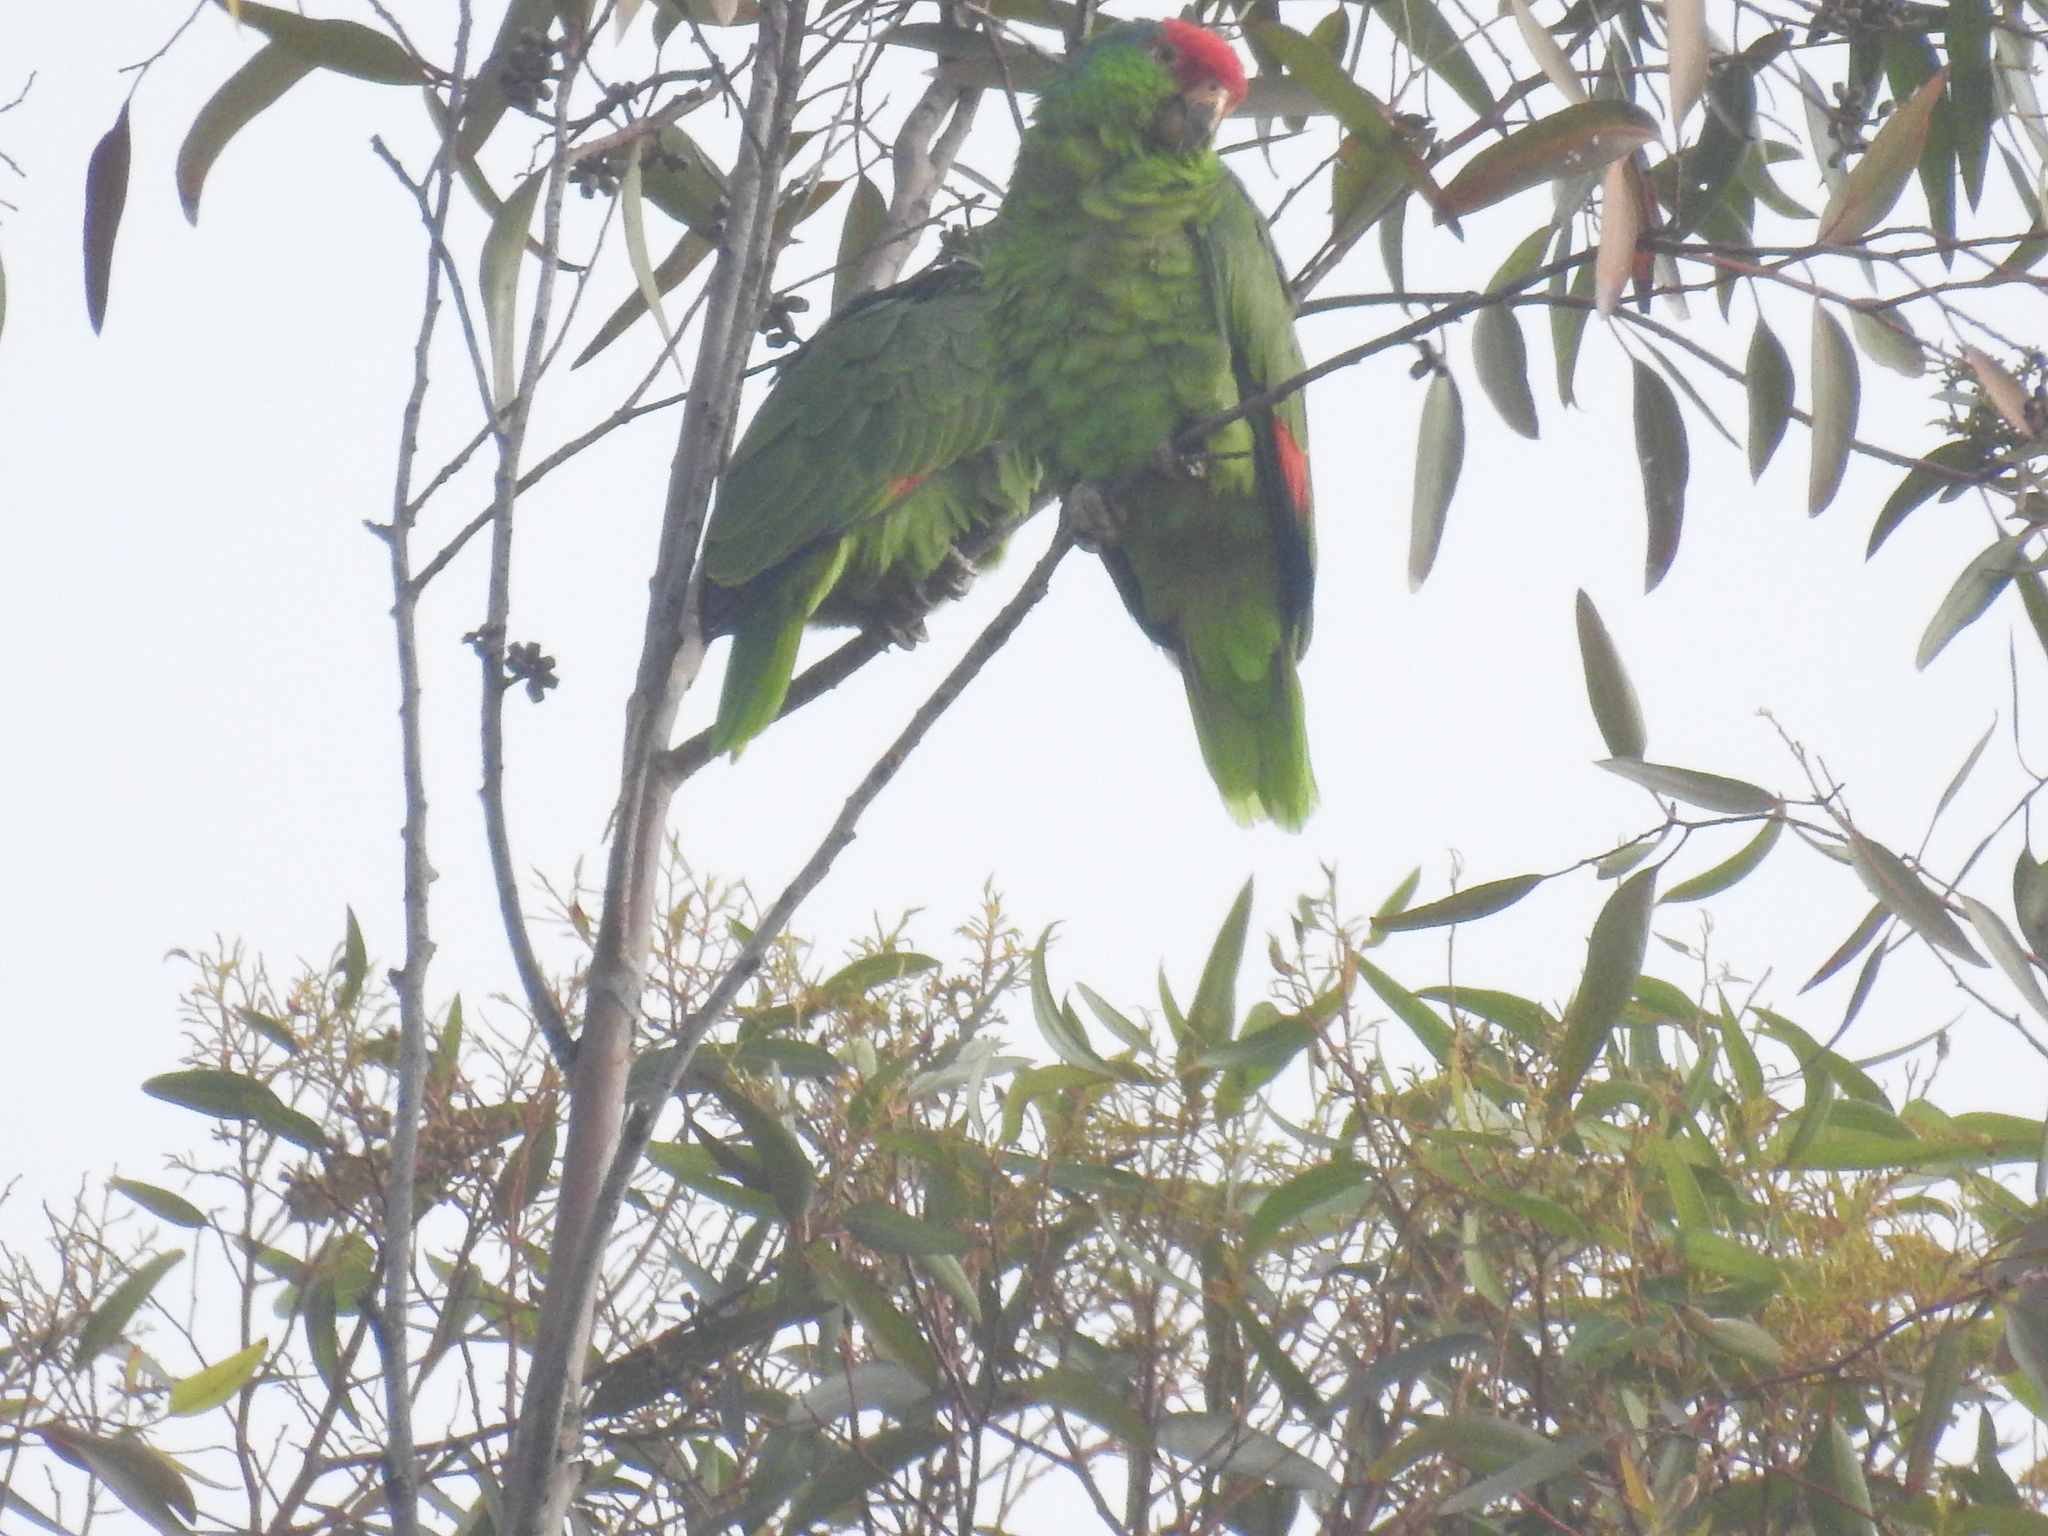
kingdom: Animalia
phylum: Chordata
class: Aves
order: Psittaciformes
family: Psittacidae
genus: Amazona
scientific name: Amazona viridigenalis
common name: Red-crowned amazon
